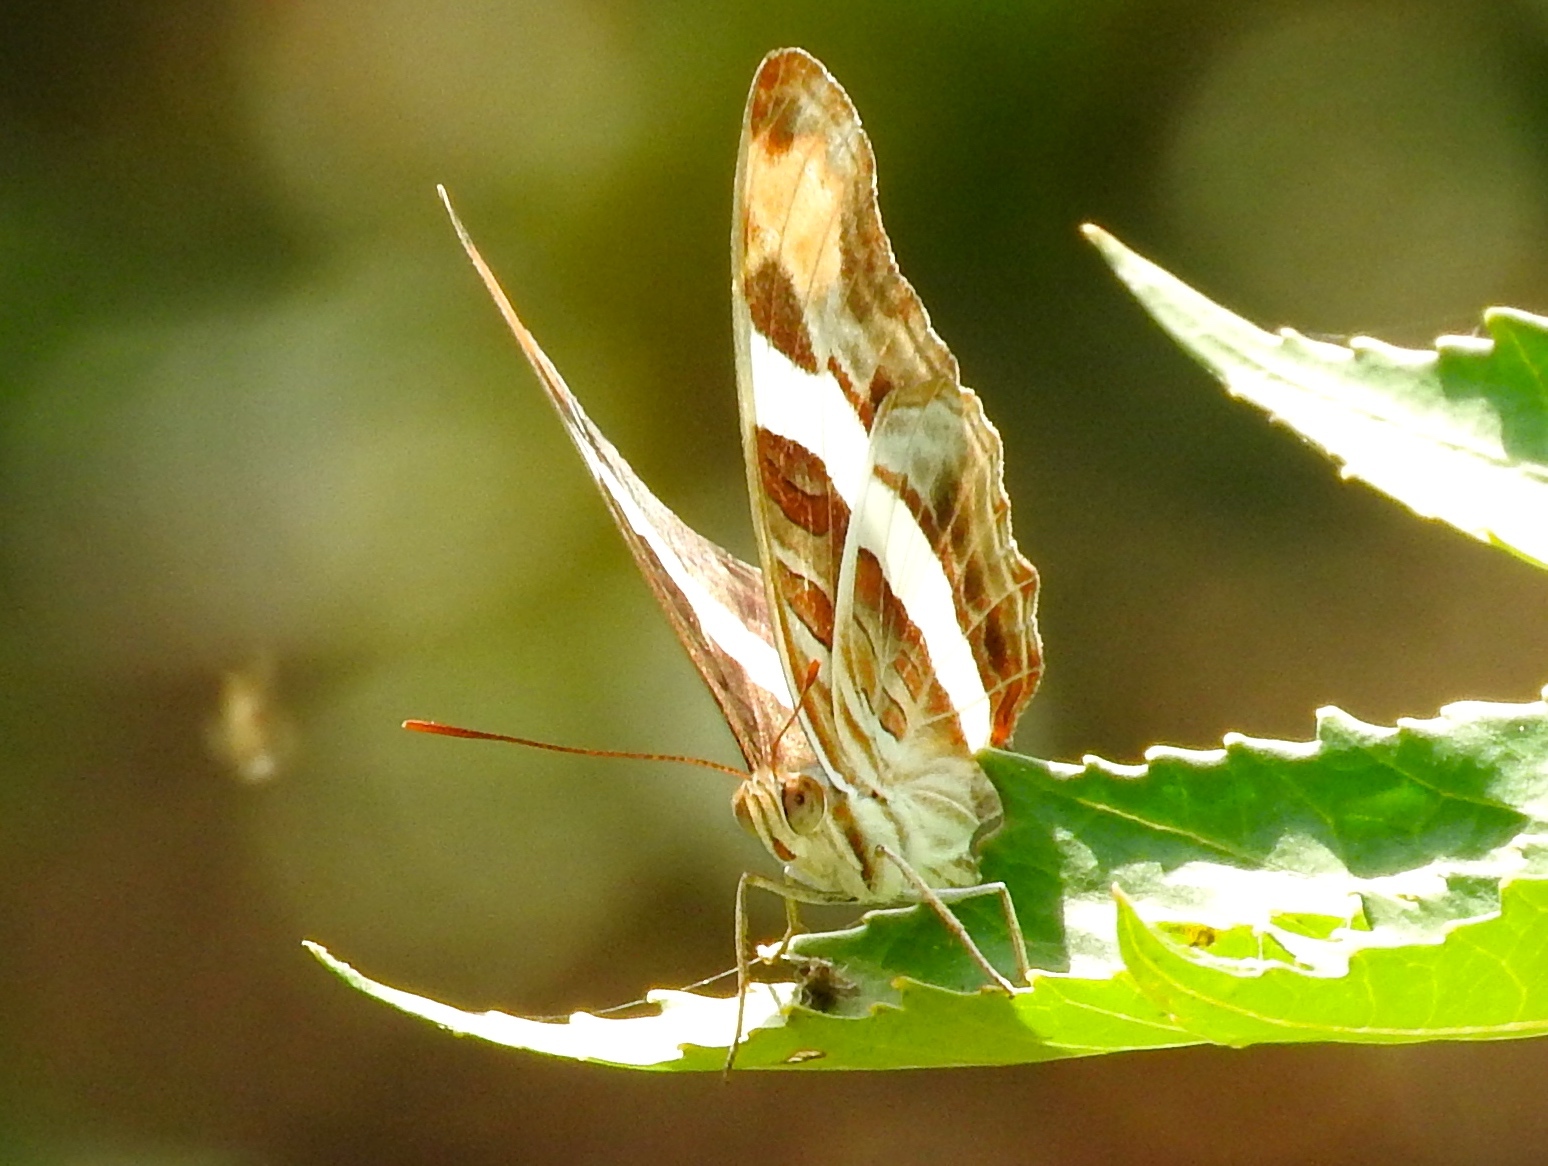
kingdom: Animalia
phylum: Arthropoda
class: Insecta
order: Lepidoptera
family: Nymphalidae
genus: Limenitis
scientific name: Limenitis fessonia
